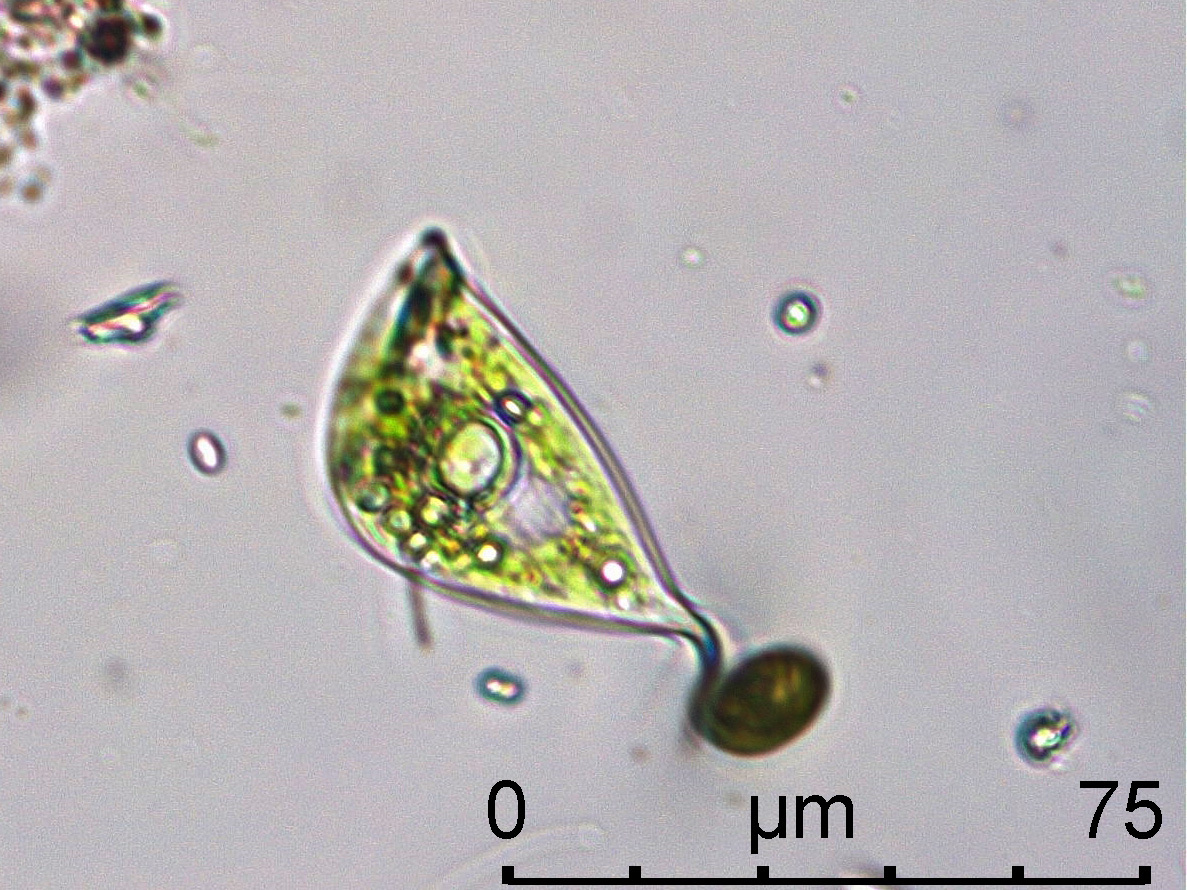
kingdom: Protozoa
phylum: Euglenozoa
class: Euglenoidea
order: Euglenida
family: Phacidae
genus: Phacus
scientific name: Phacus lismorensis
